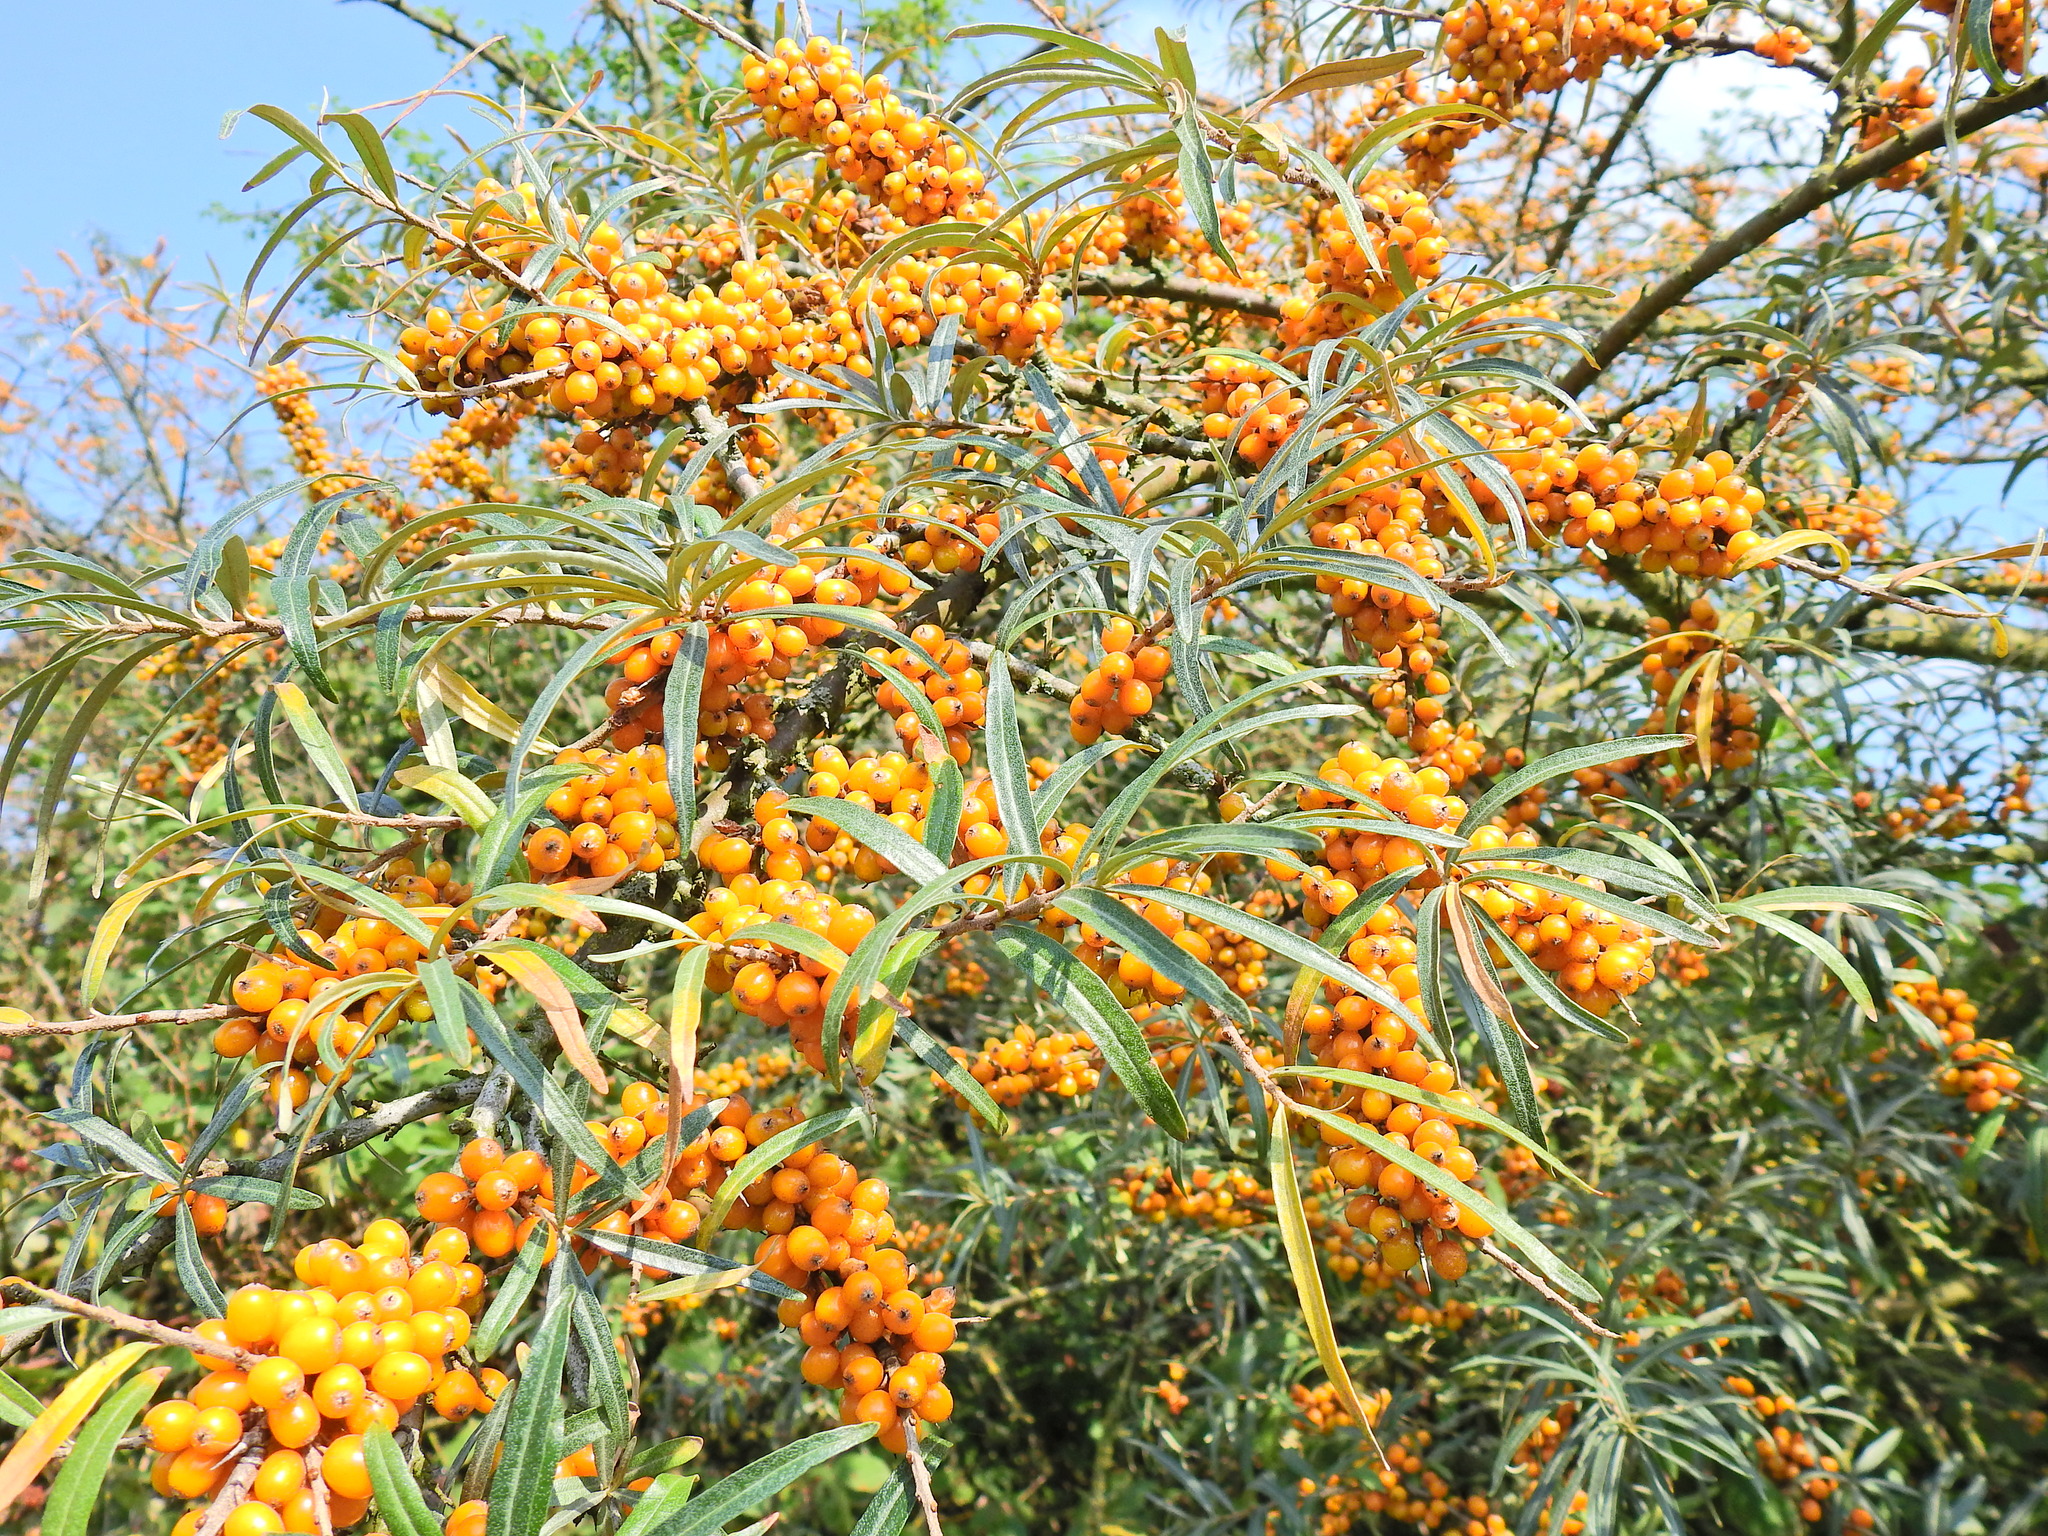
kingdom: Plantae
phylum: Tracheophyta
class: Magnoliopsida
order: Rosales
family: Elaeagnaceae
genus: Hippophae
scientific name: Hippophae rhamnoides
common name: Sea-buckthorn
